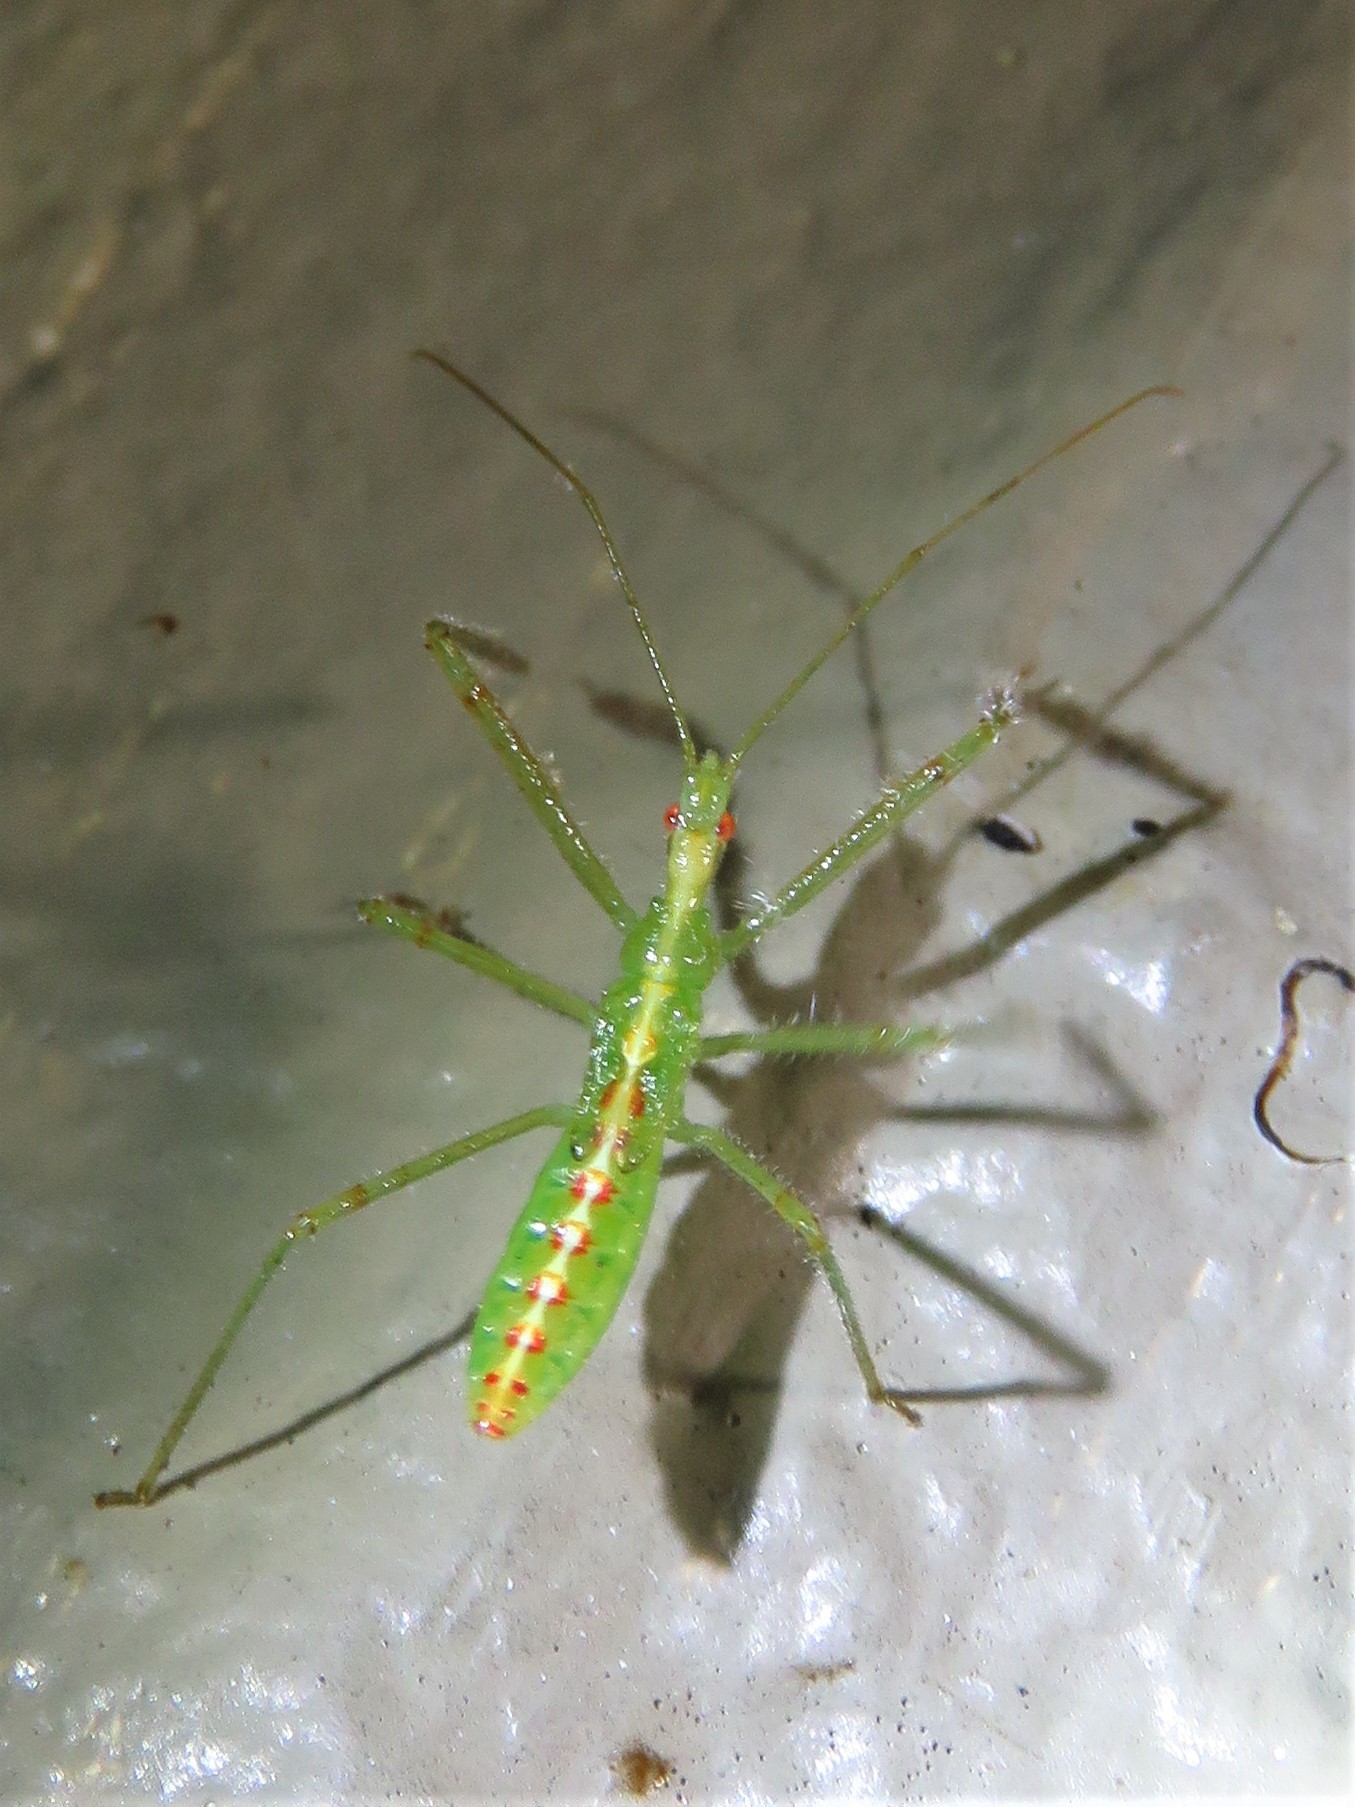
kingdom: Animalia
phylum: Arthropoda
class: Insecta
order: Hemiptera
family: Reduviidae
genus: Zelus
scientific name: Zelus luridus
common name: Pale green assassin bug
